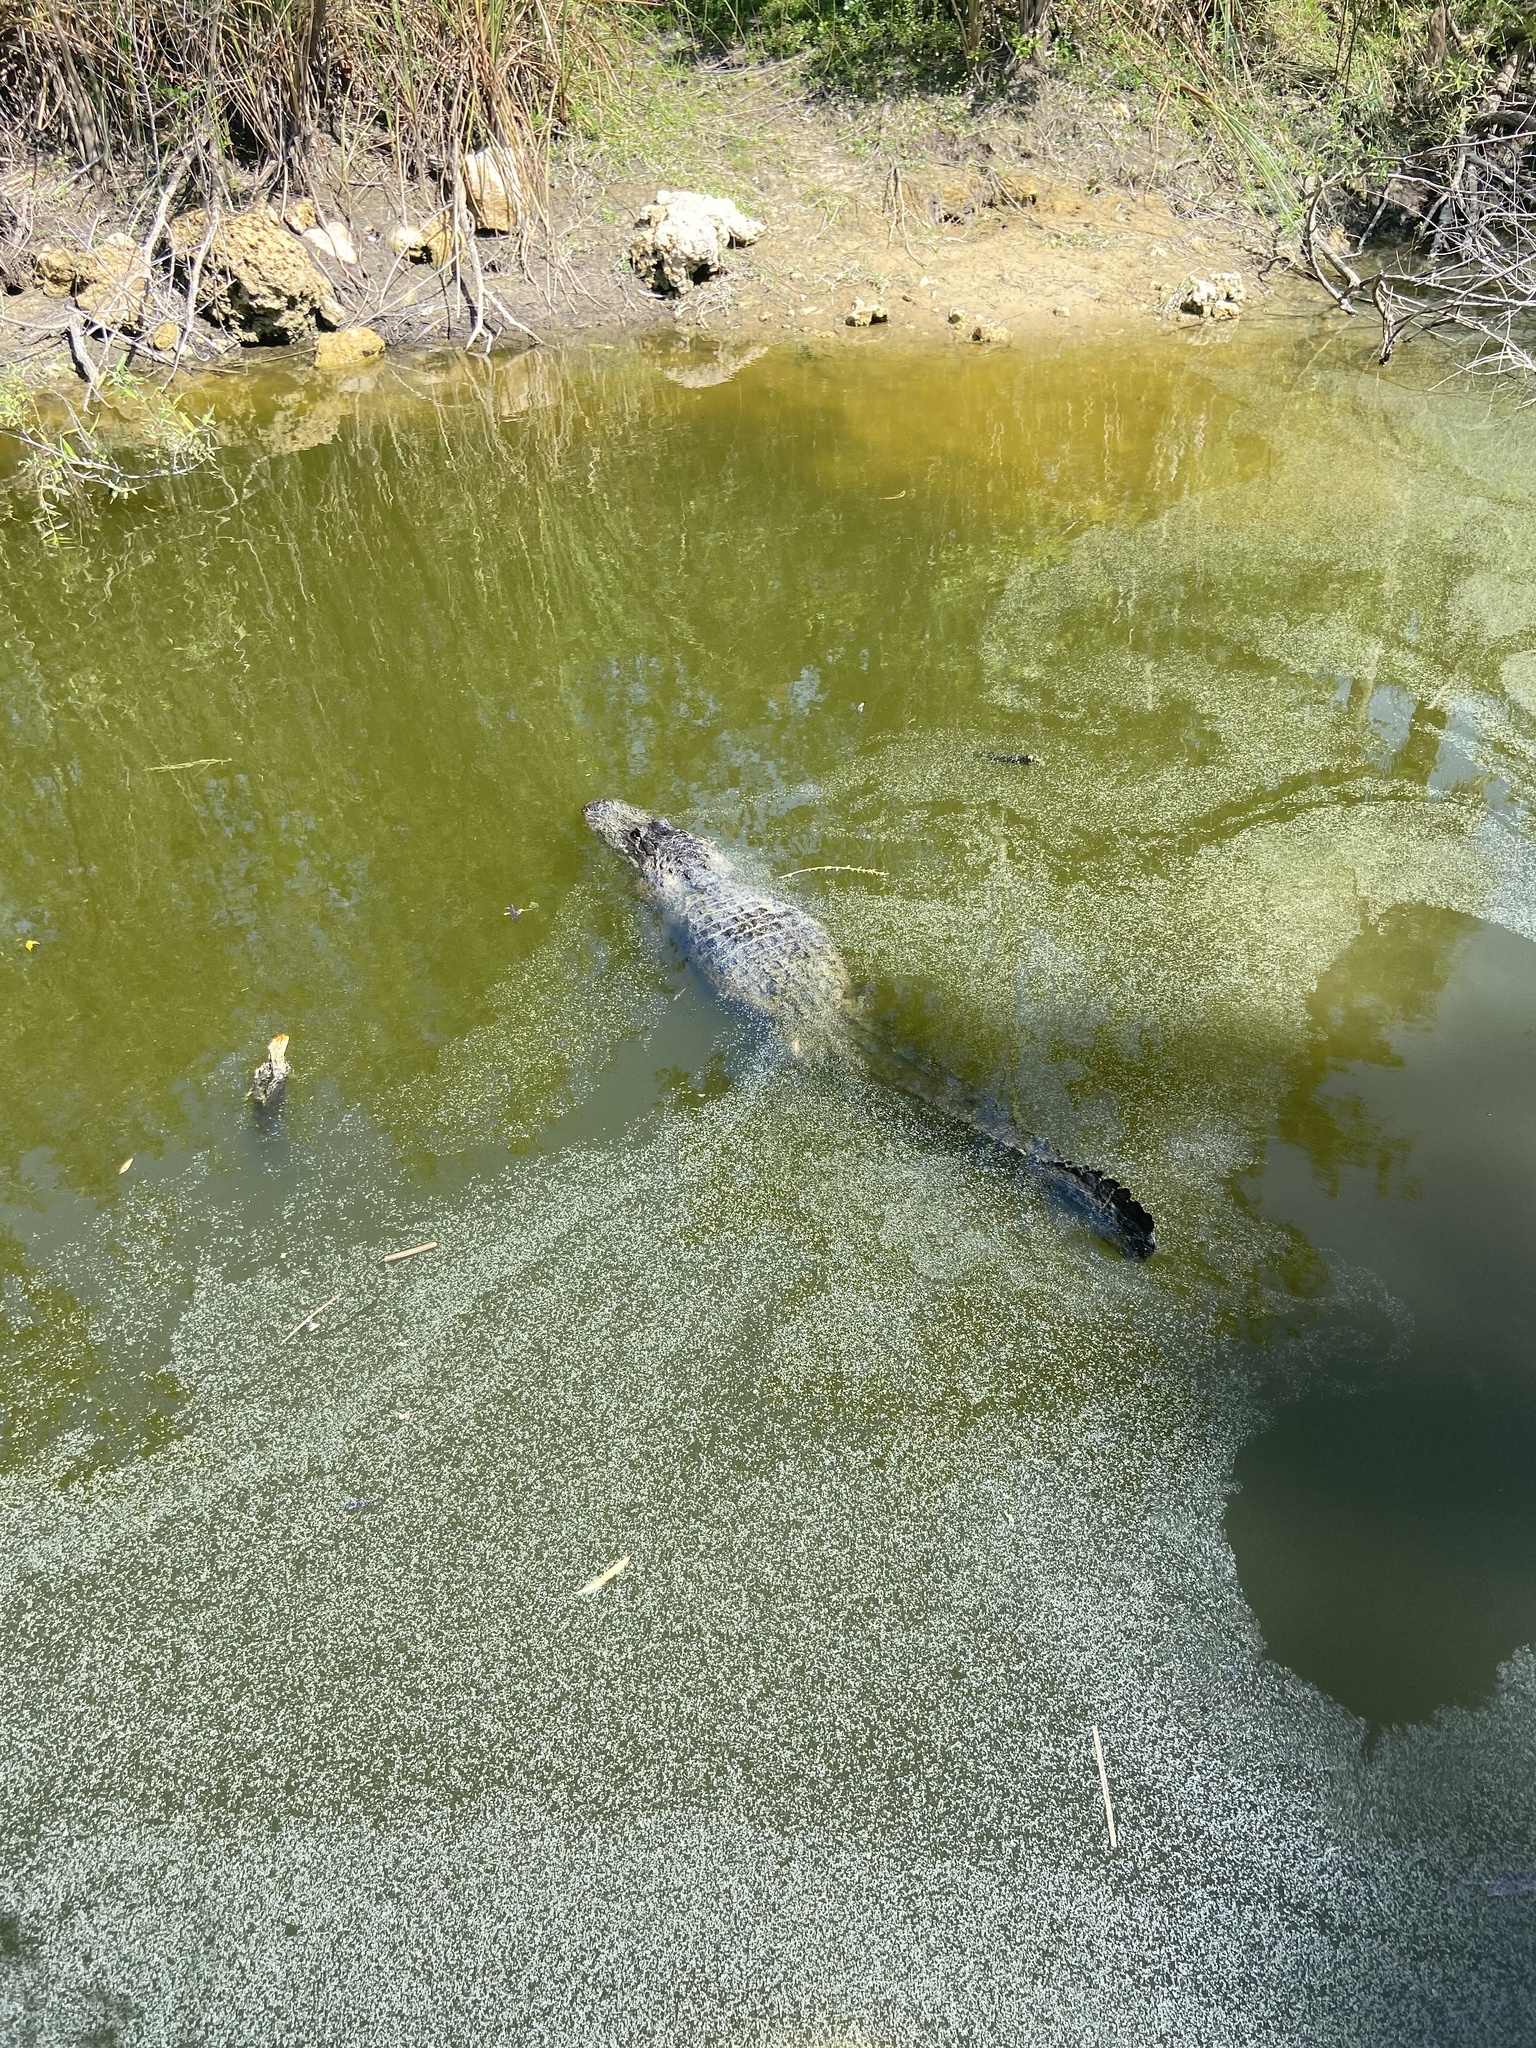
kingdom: Animalia
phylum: Chordata
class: Crocodylia
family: Alligatoridae
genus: Alligator
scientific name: Alligator mississippiensis
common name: American alligator
